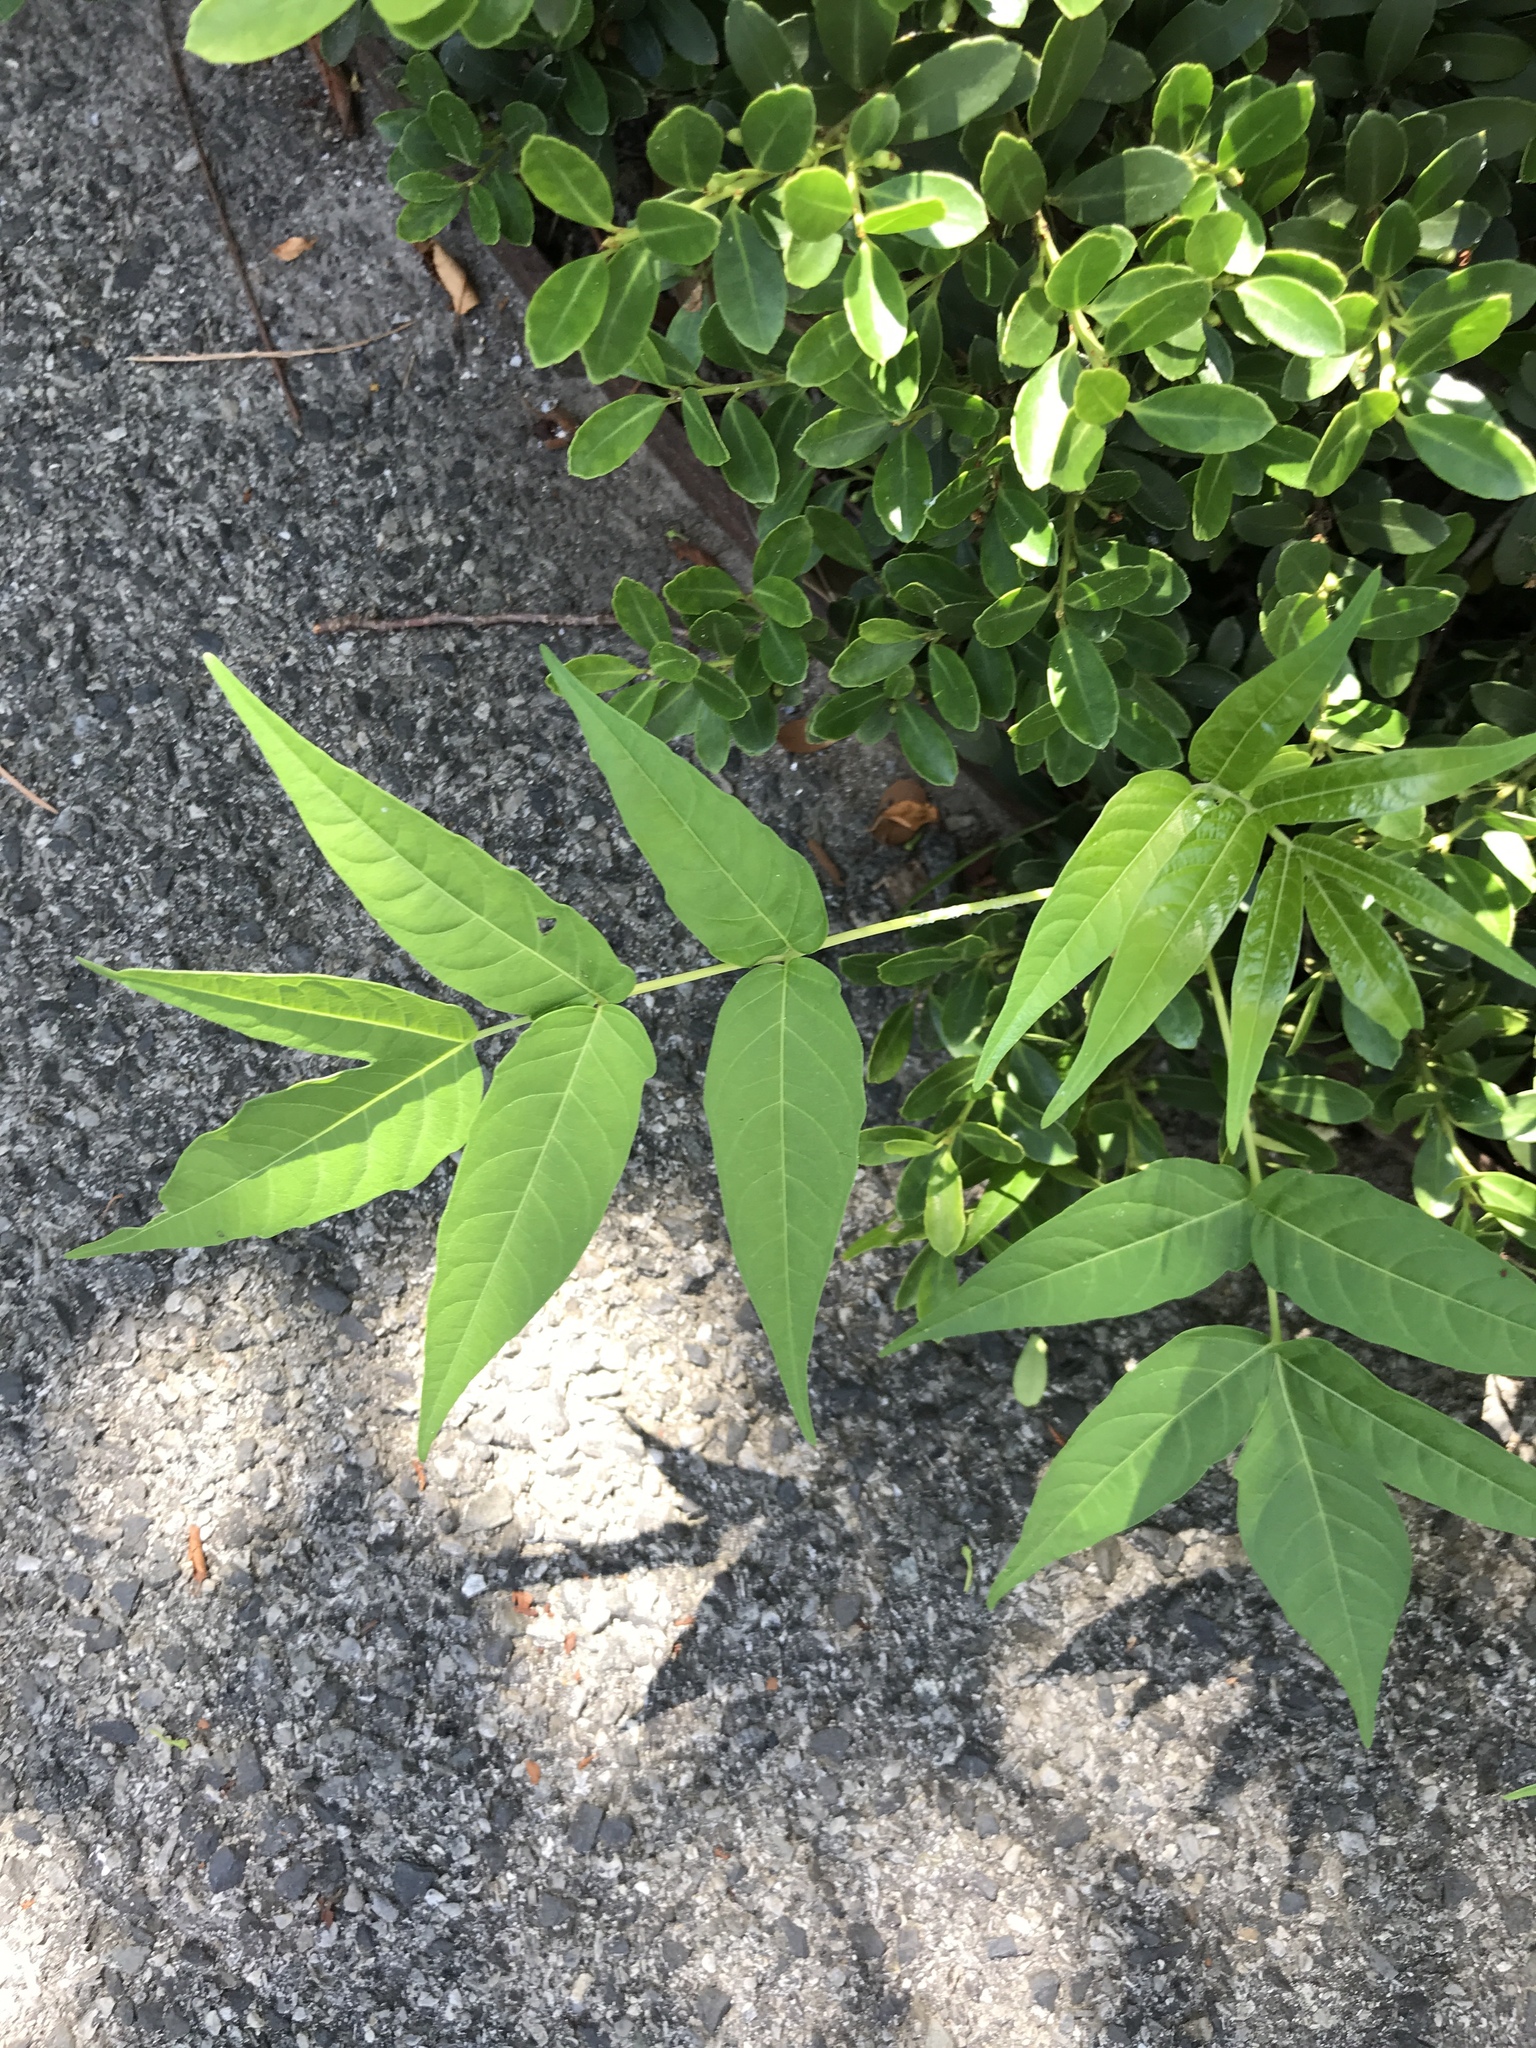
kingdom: Plantae
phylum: Tracheophyta
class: Magnoliopsida
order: Sapindales
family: Simaroubaceae
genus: Ailanthus
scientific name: Ailanthus altissima
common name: Tree-of-heaven
